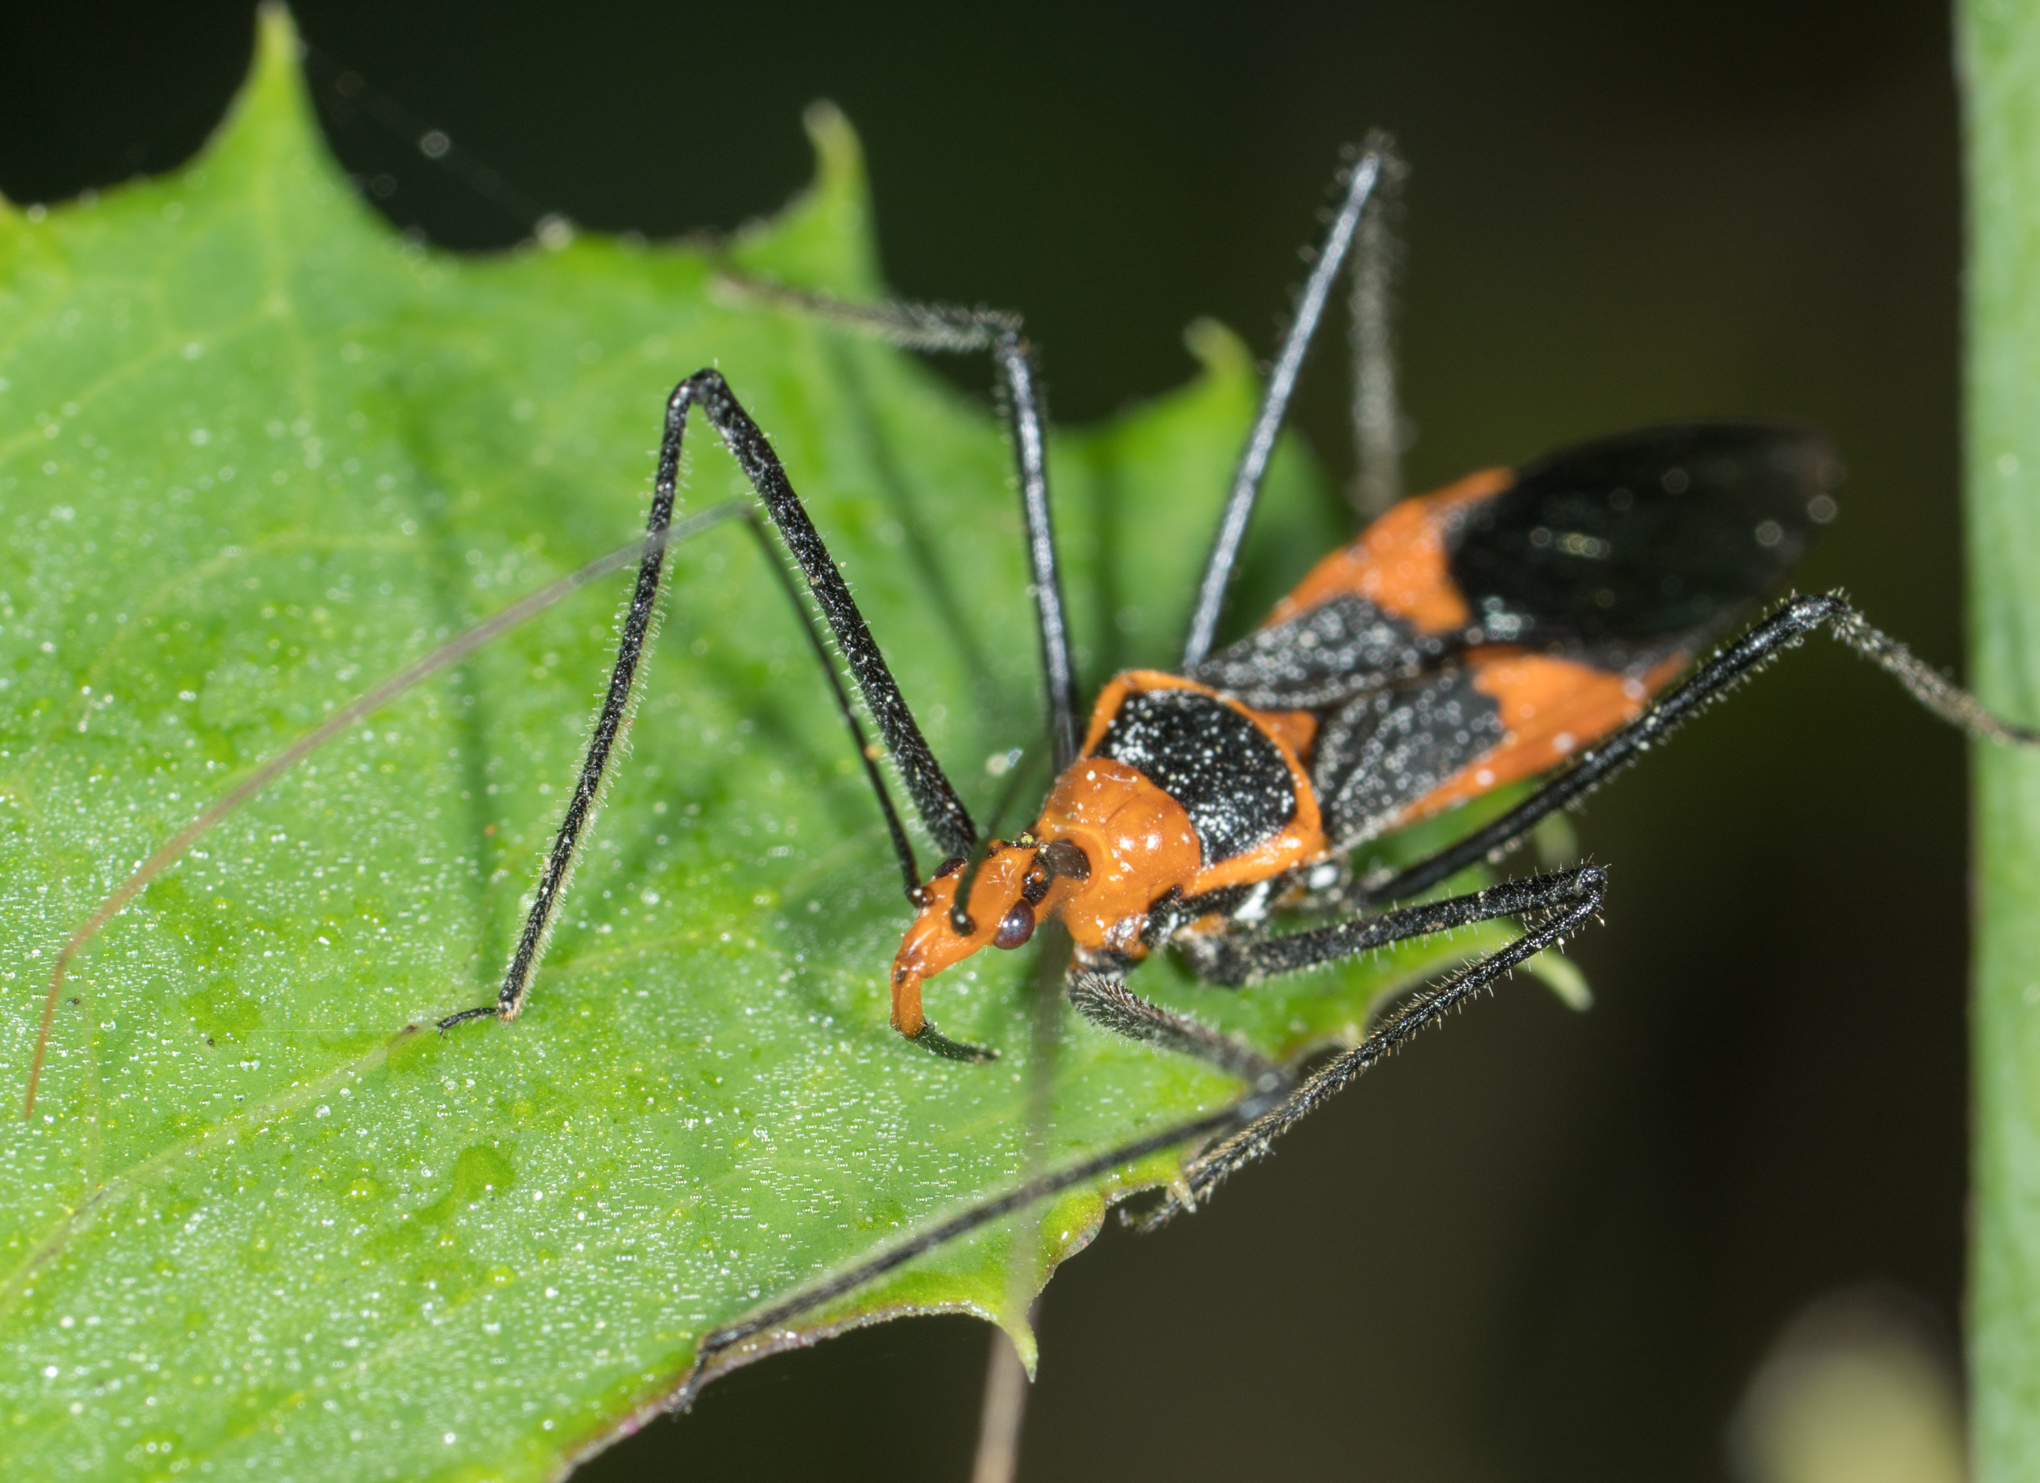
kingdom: Animalia
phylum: Arthropoda
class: Insecta
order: Hemiptera
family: Reduviidae
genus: Zelus
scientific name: Zelus longipes
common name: Milkweed assassin bug
